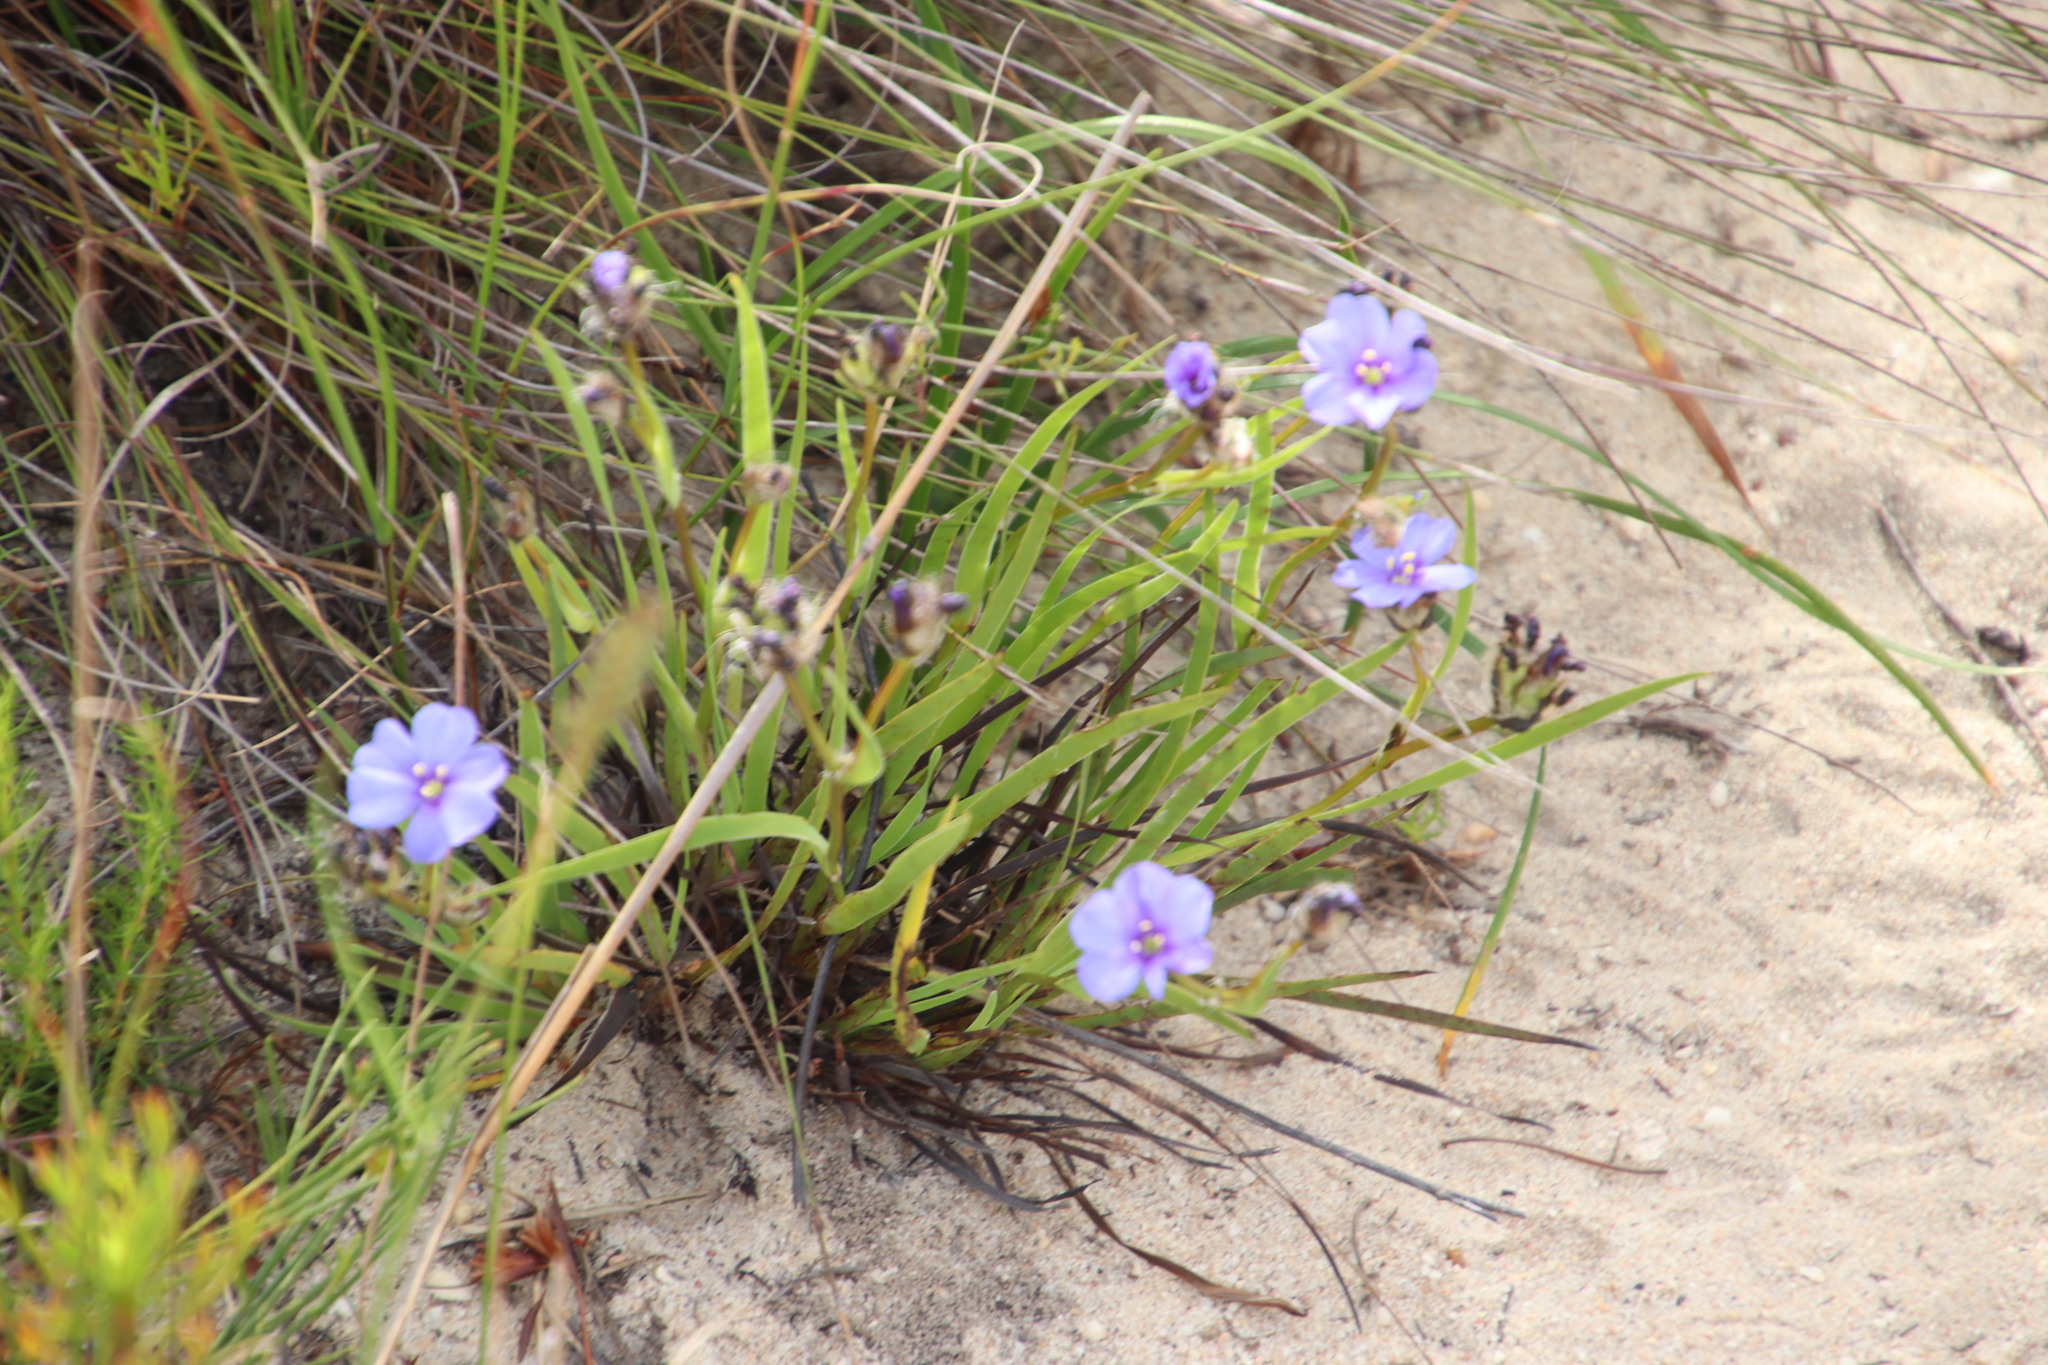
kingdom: Plantae
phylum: Tracheophyta
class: Liliopsida
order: Asparagales
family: Iridaceae
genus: Aristea
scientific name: Aristea africana
